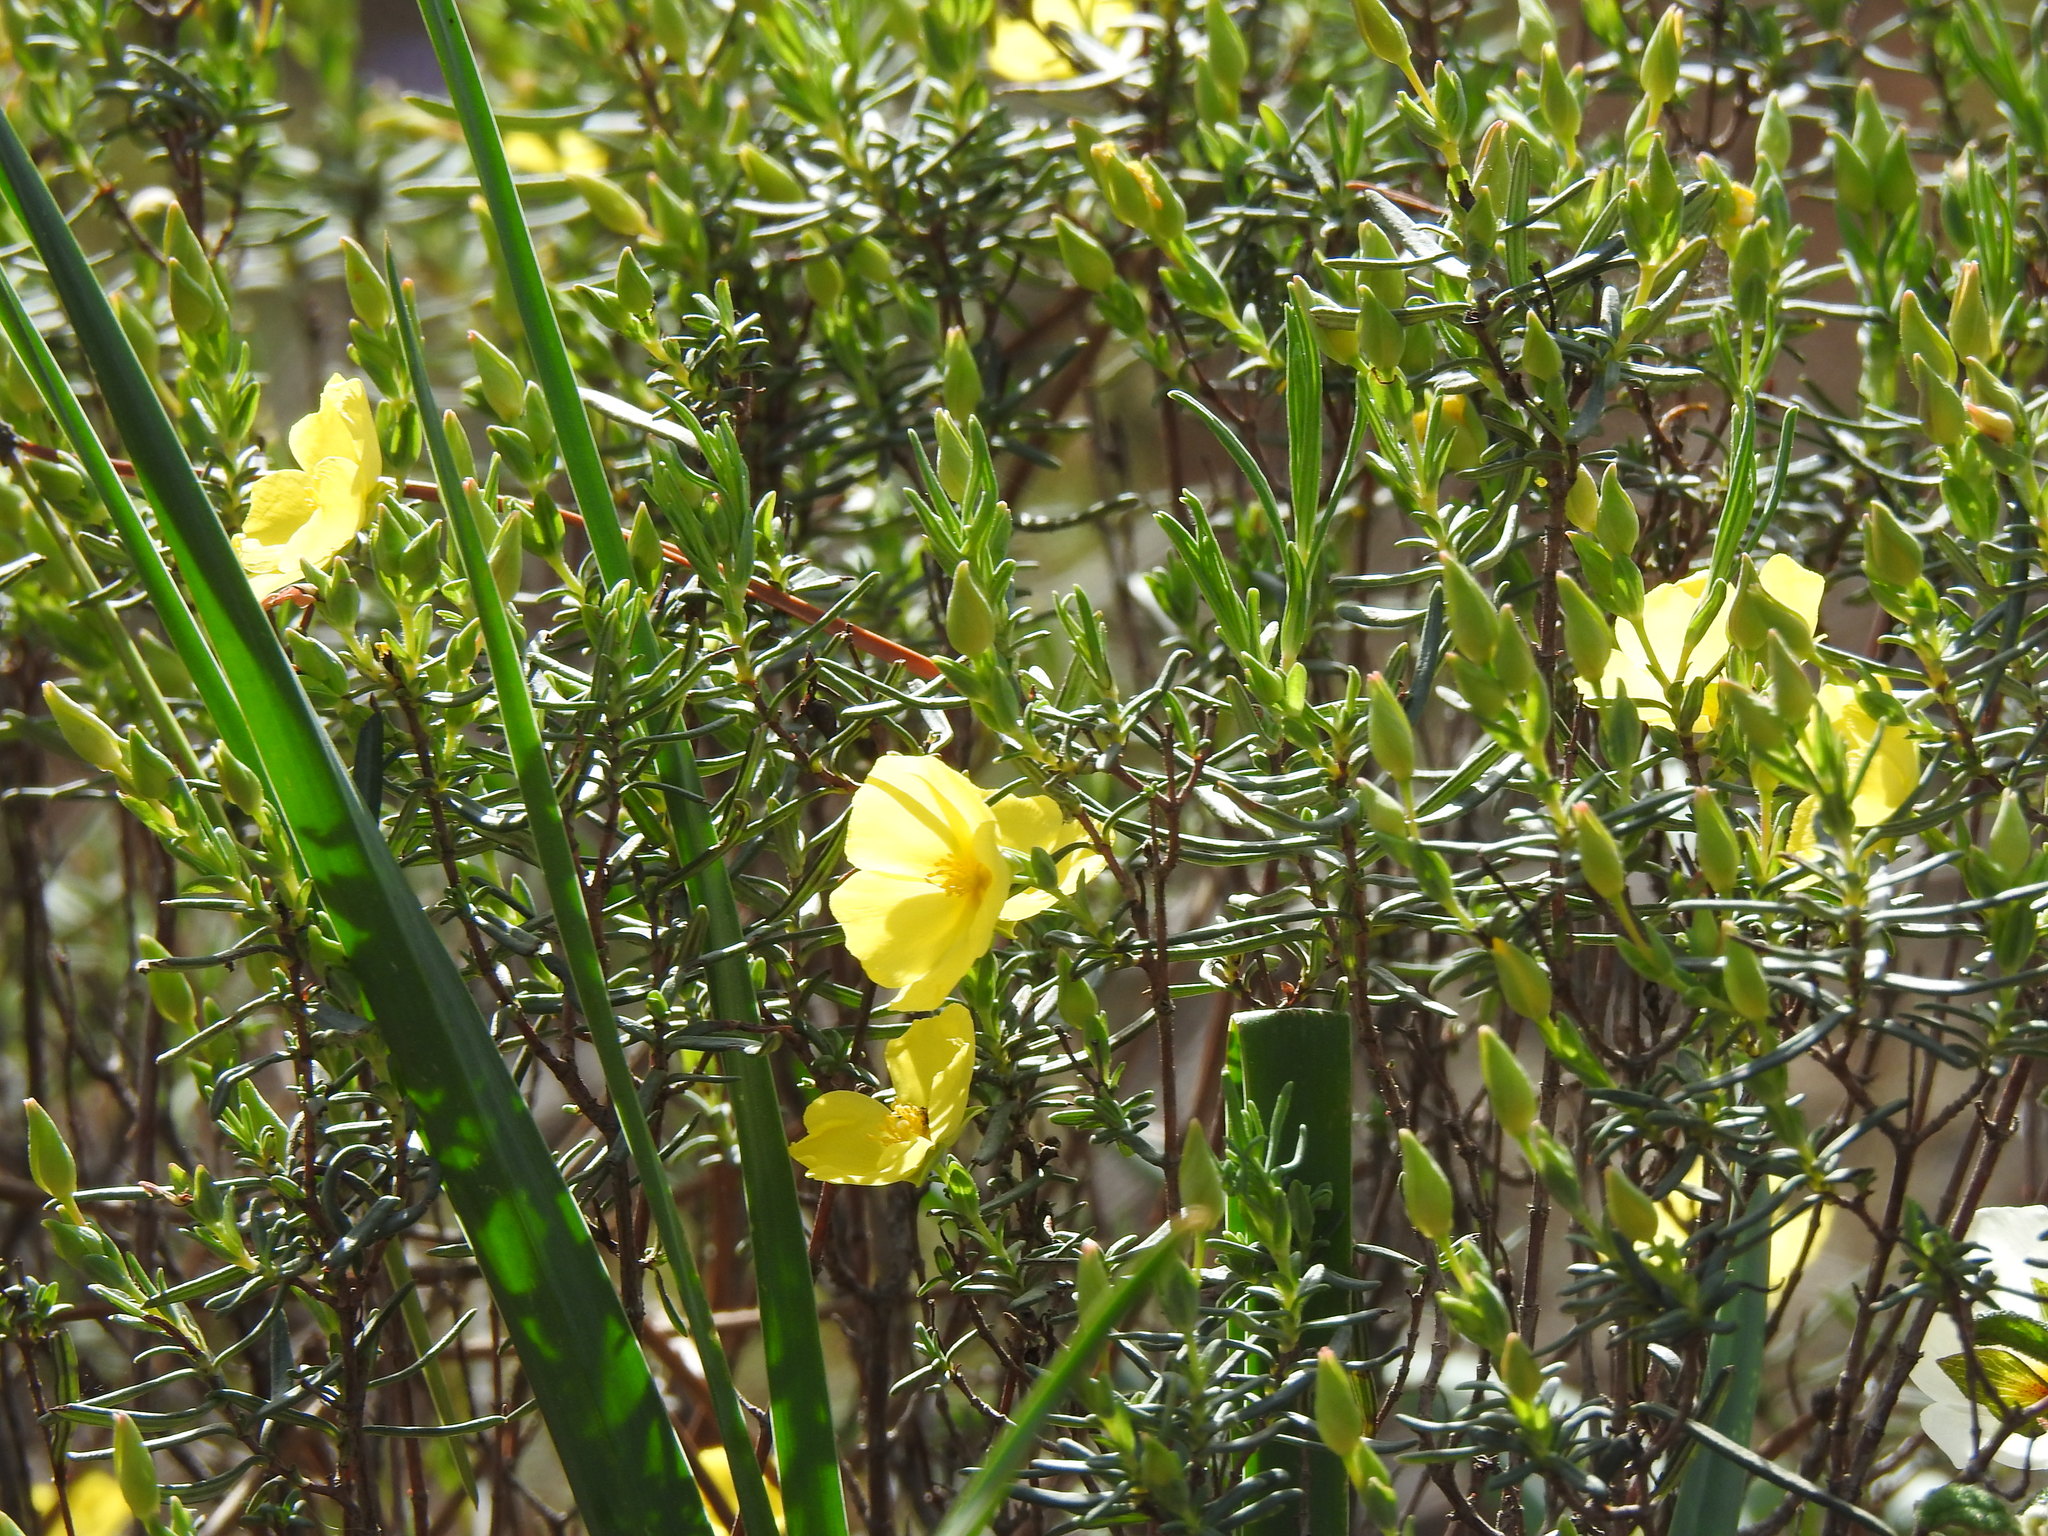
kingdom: Plantae
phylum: Tracheophyta
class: Magnoliopsida
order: Malvales
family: Cistaceae
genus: Halimium
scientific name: Halimium calycinum
